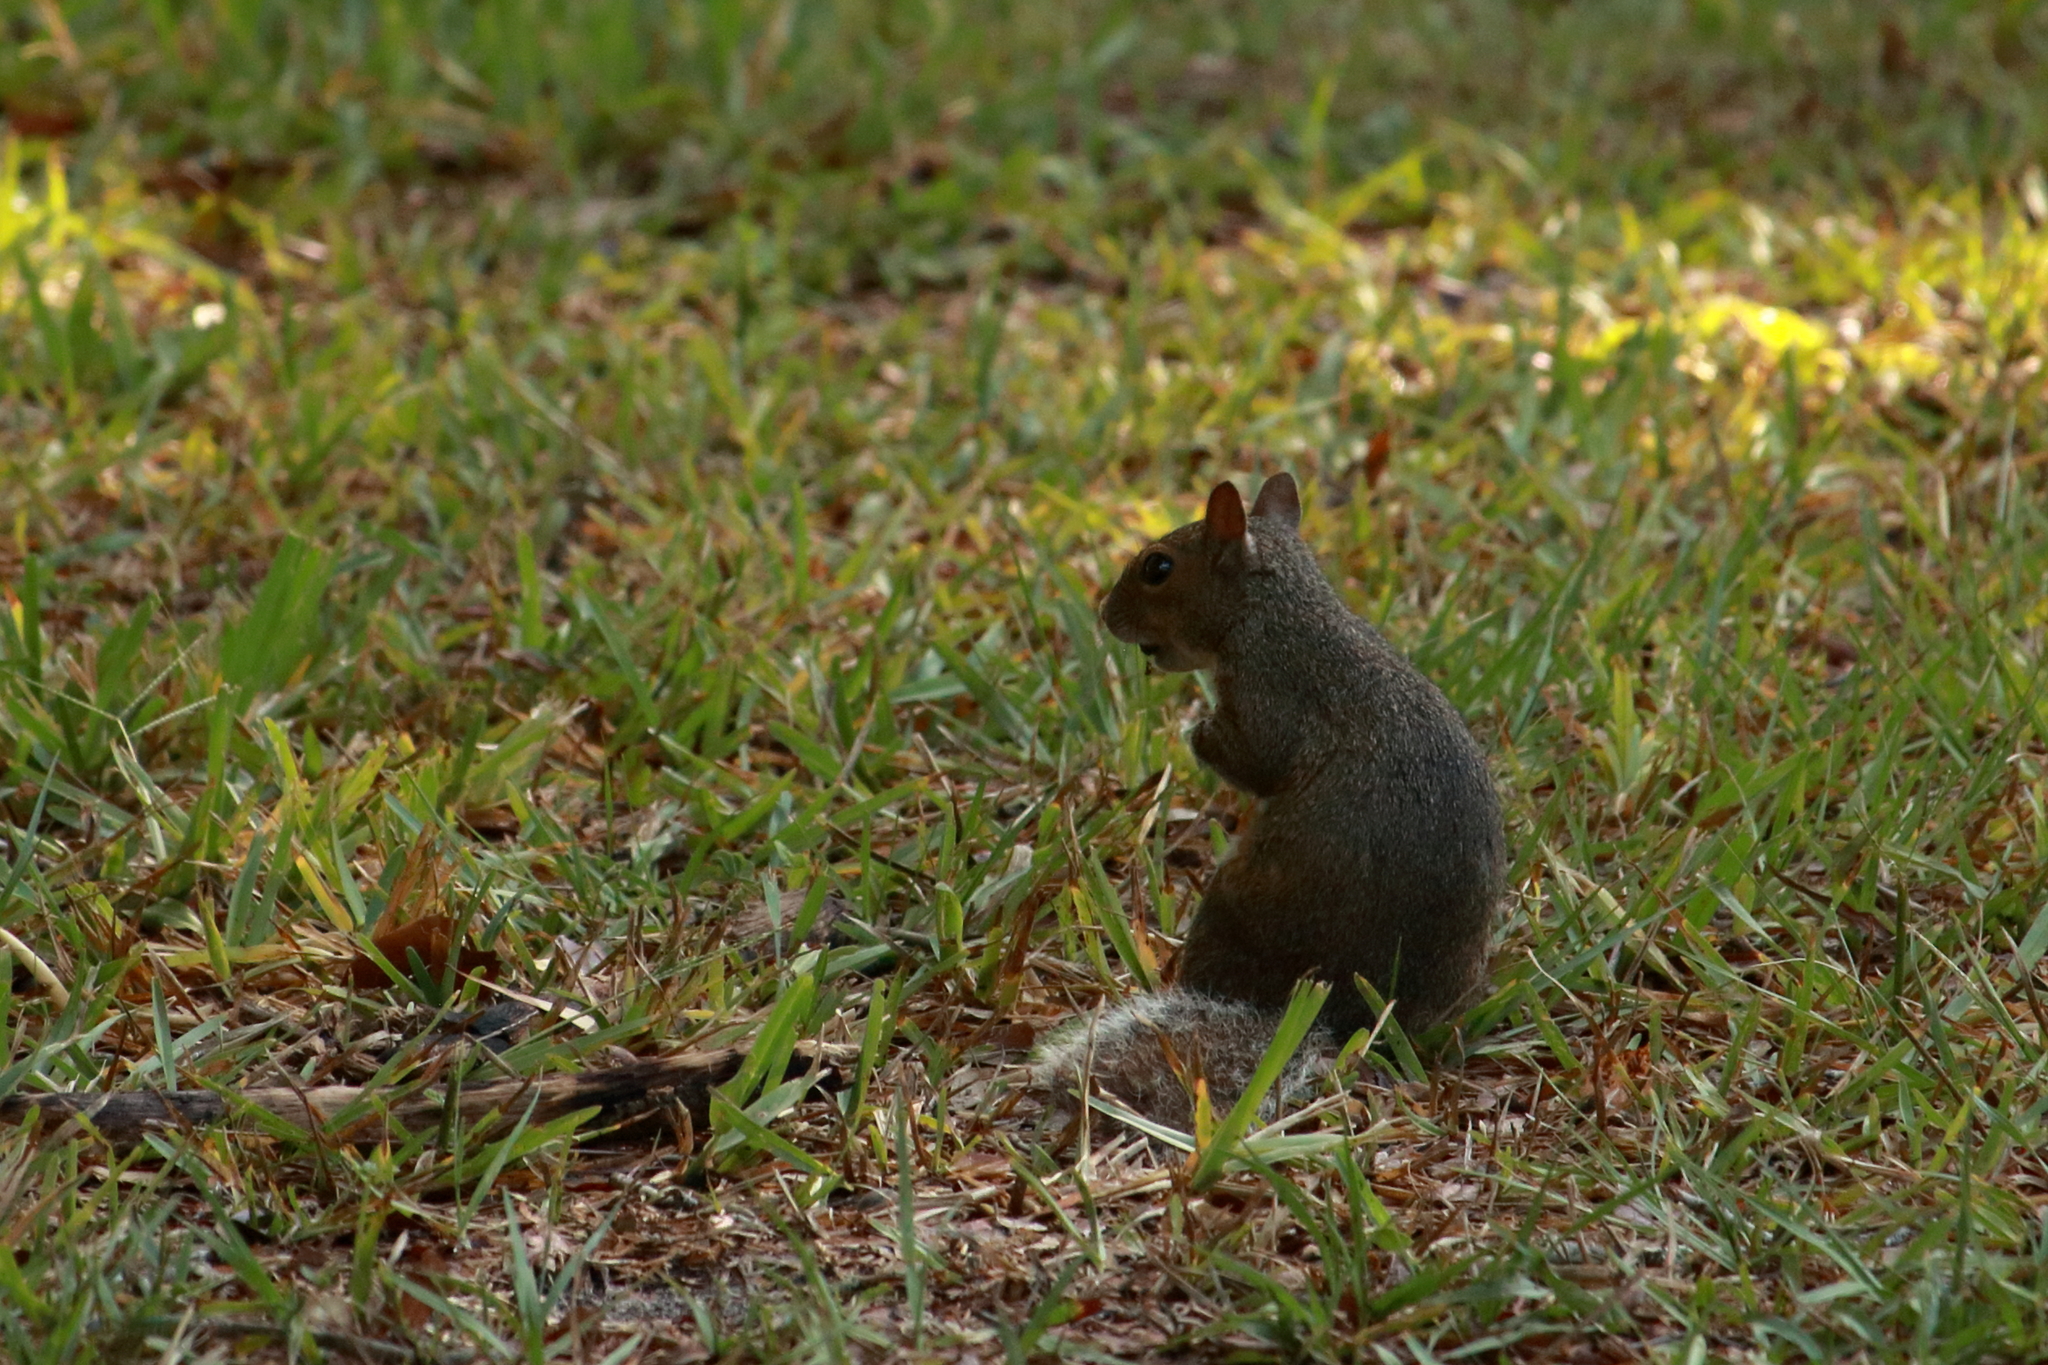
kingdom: Animalia
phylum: Chordata
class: Mammalia
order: Rodentia
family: Sciuridae
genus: Sciurus
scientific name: Sciurus carolinensis
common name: Eastern gray squirrel
